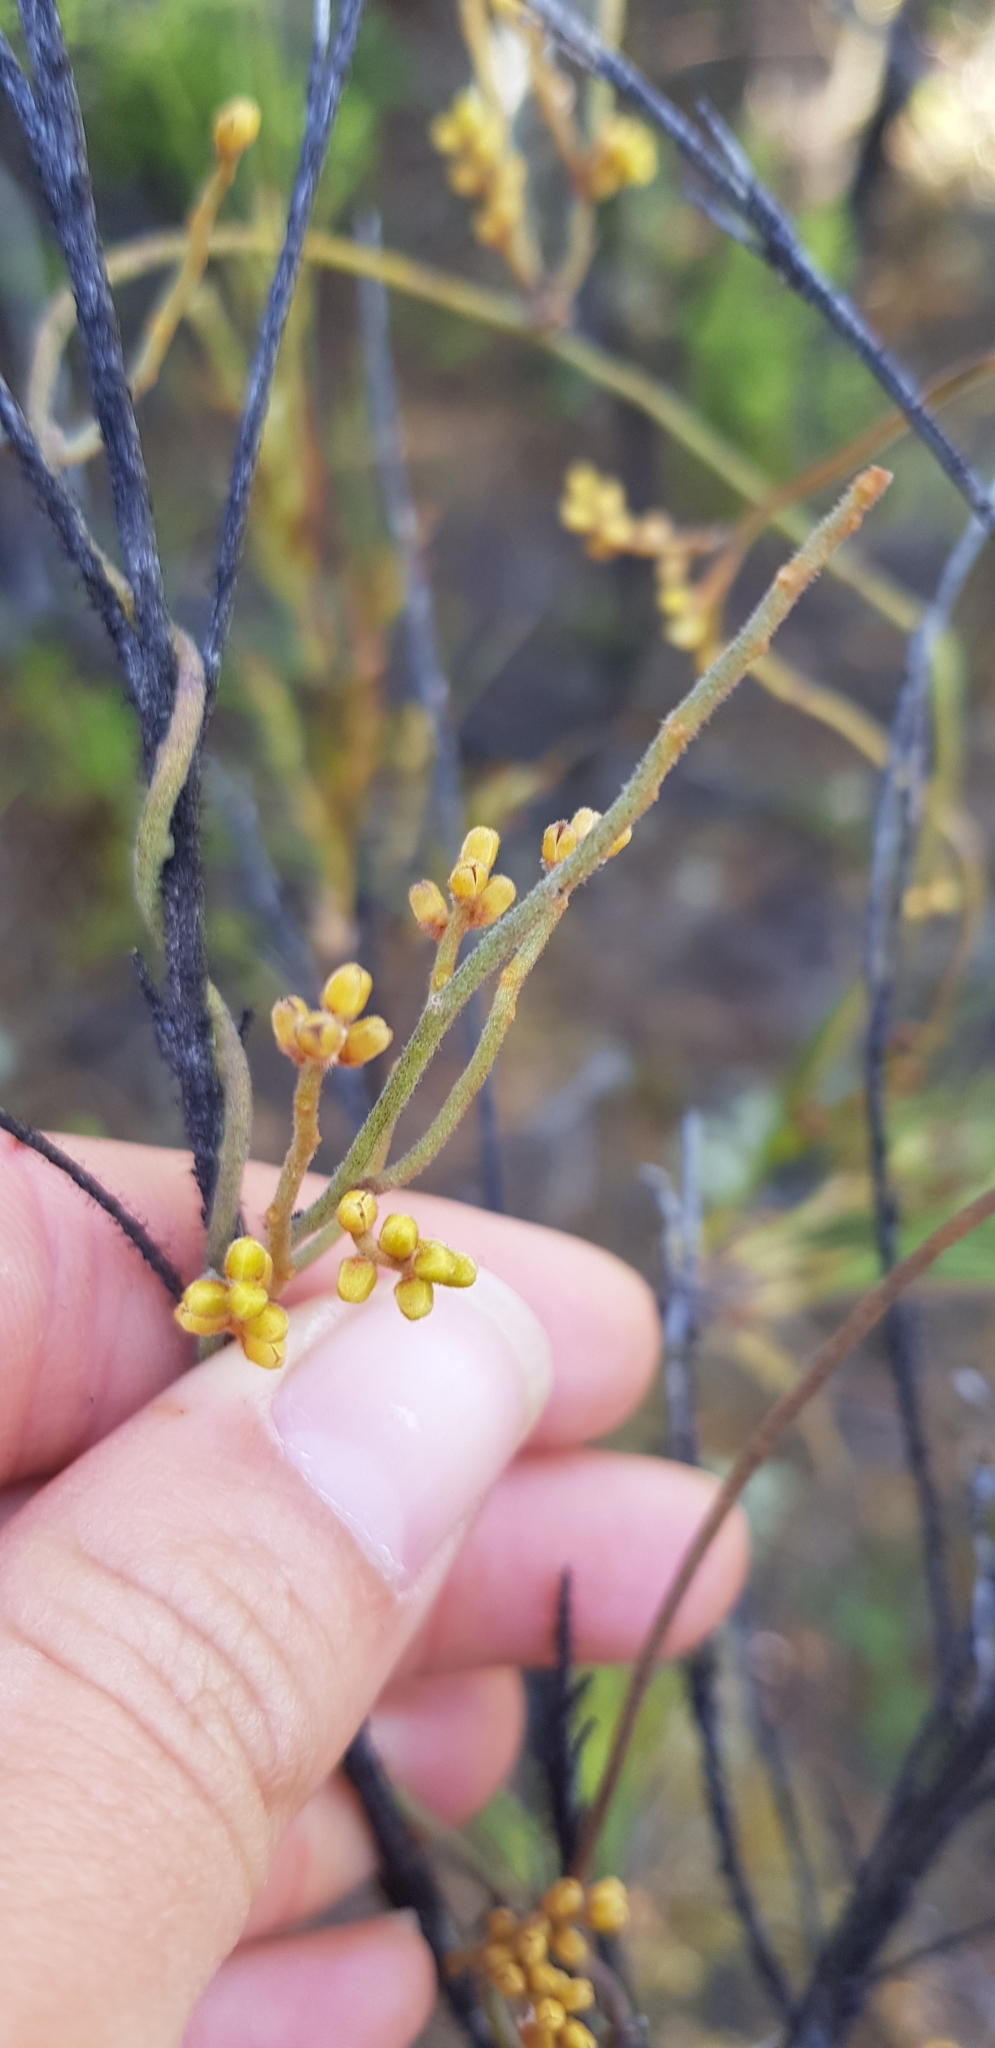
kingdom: Plantae
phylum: Tracheophyta
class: Magnoliopsida
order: Laurales
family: Lauraceae
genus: Cassytha
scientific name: Cassytha pubescens
